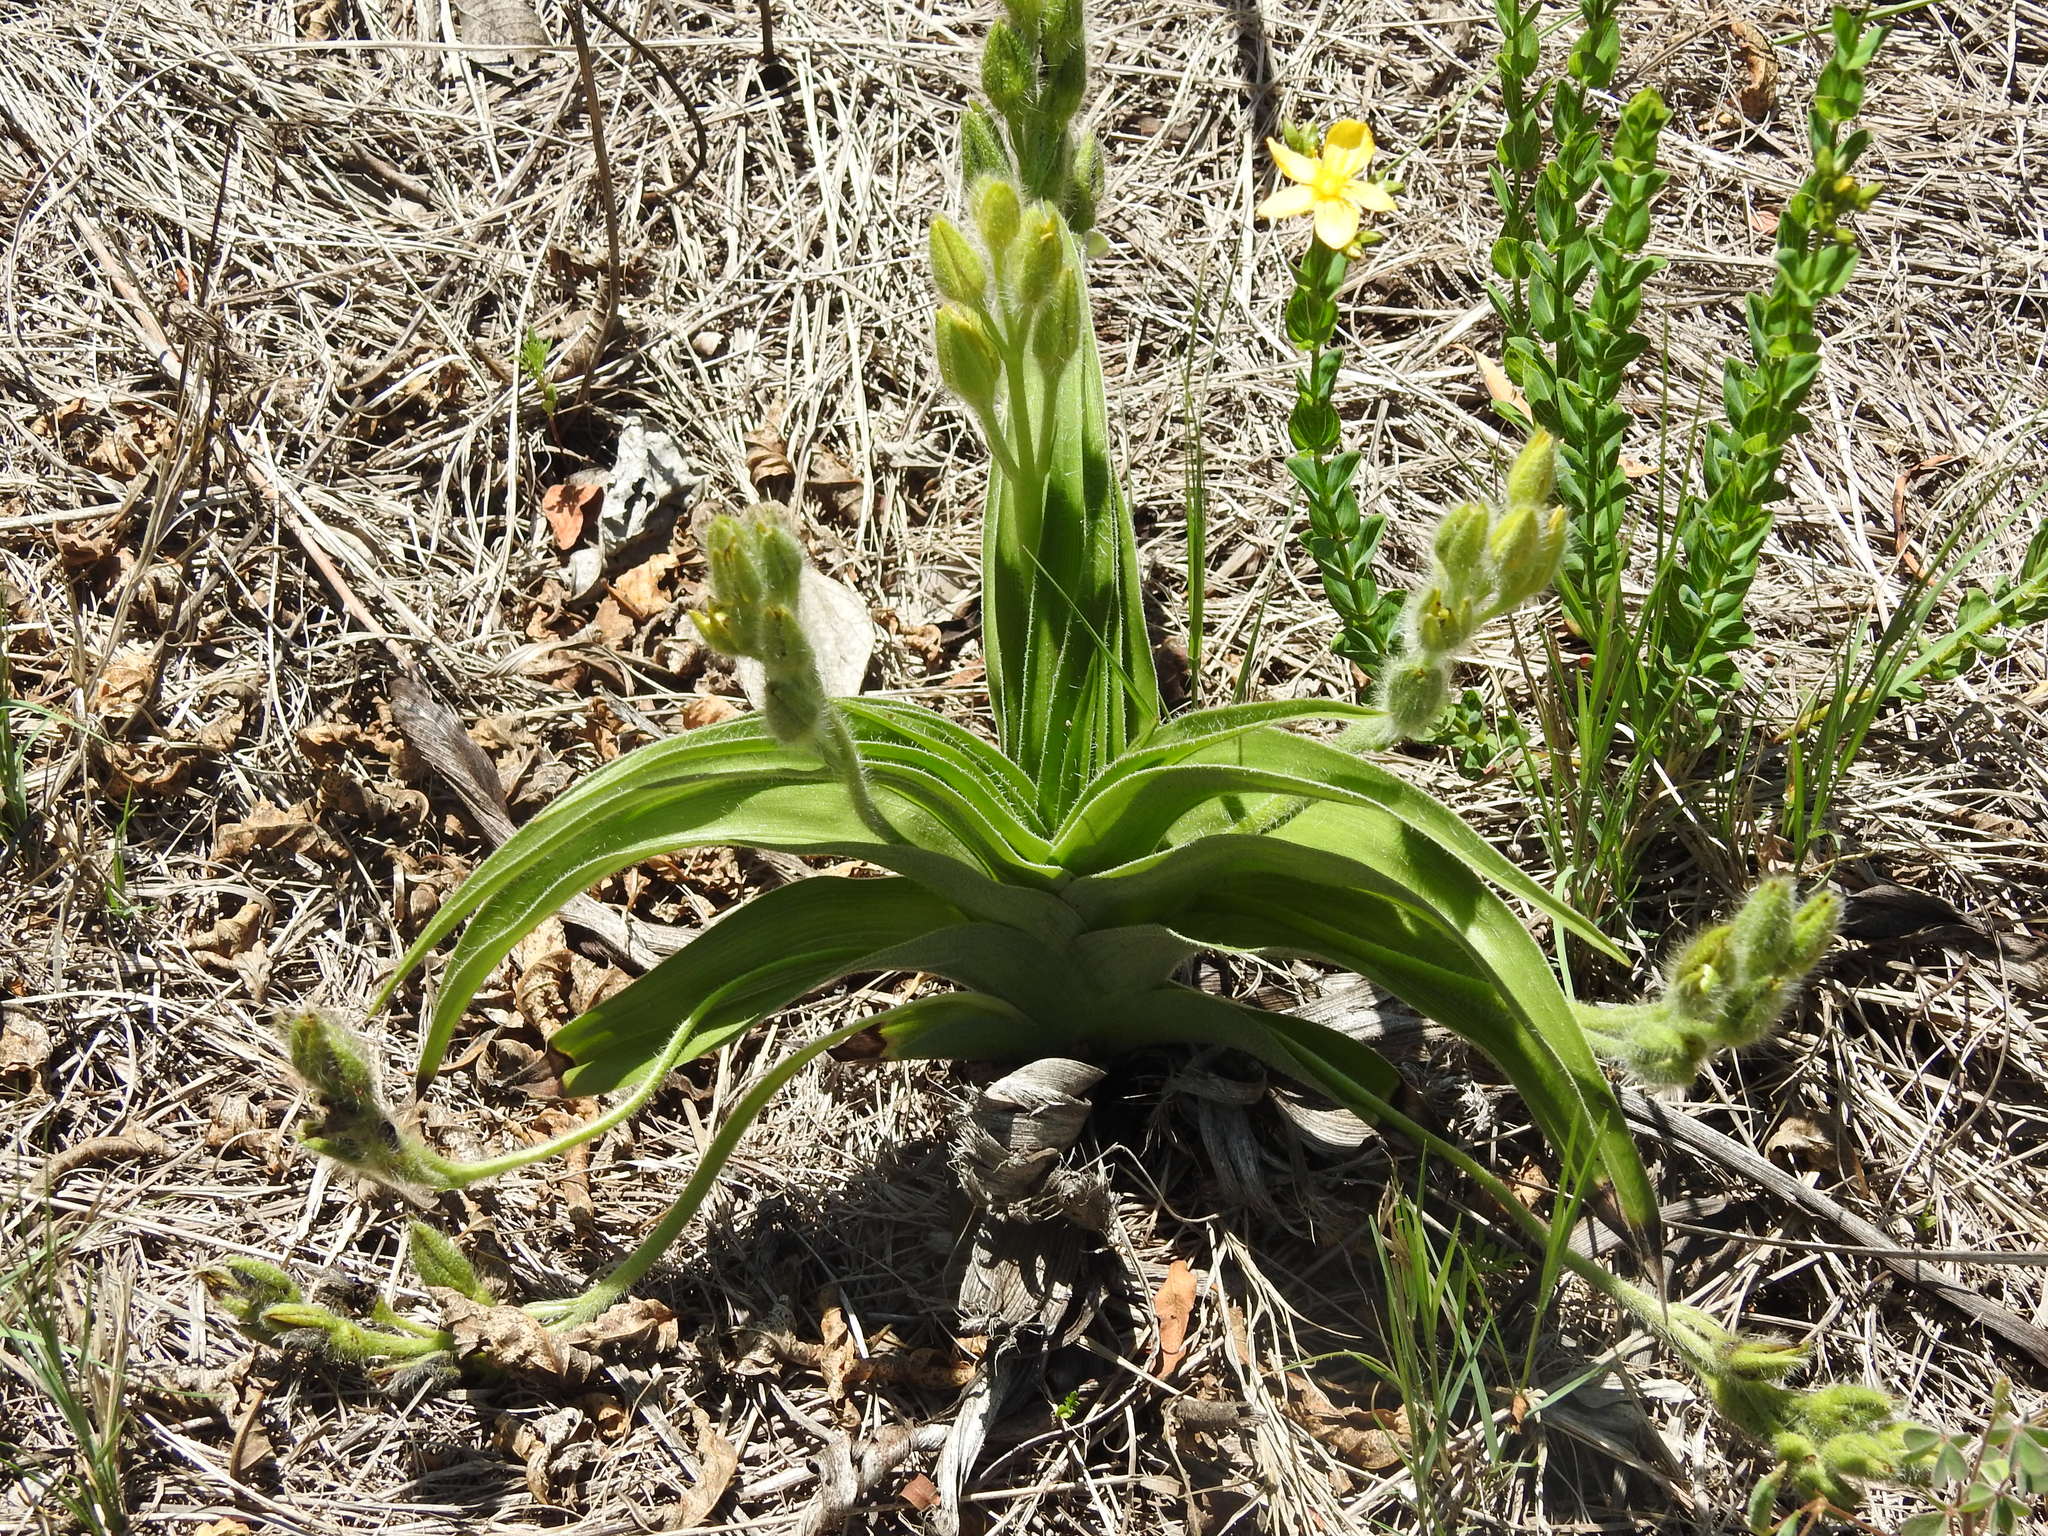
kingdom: Plantae
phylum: Tracheophyta
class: Liliopsida
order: Asparagales
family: Hypoxidaceae
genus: Hypoxis
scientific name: Hypoxis hemerocallidea
